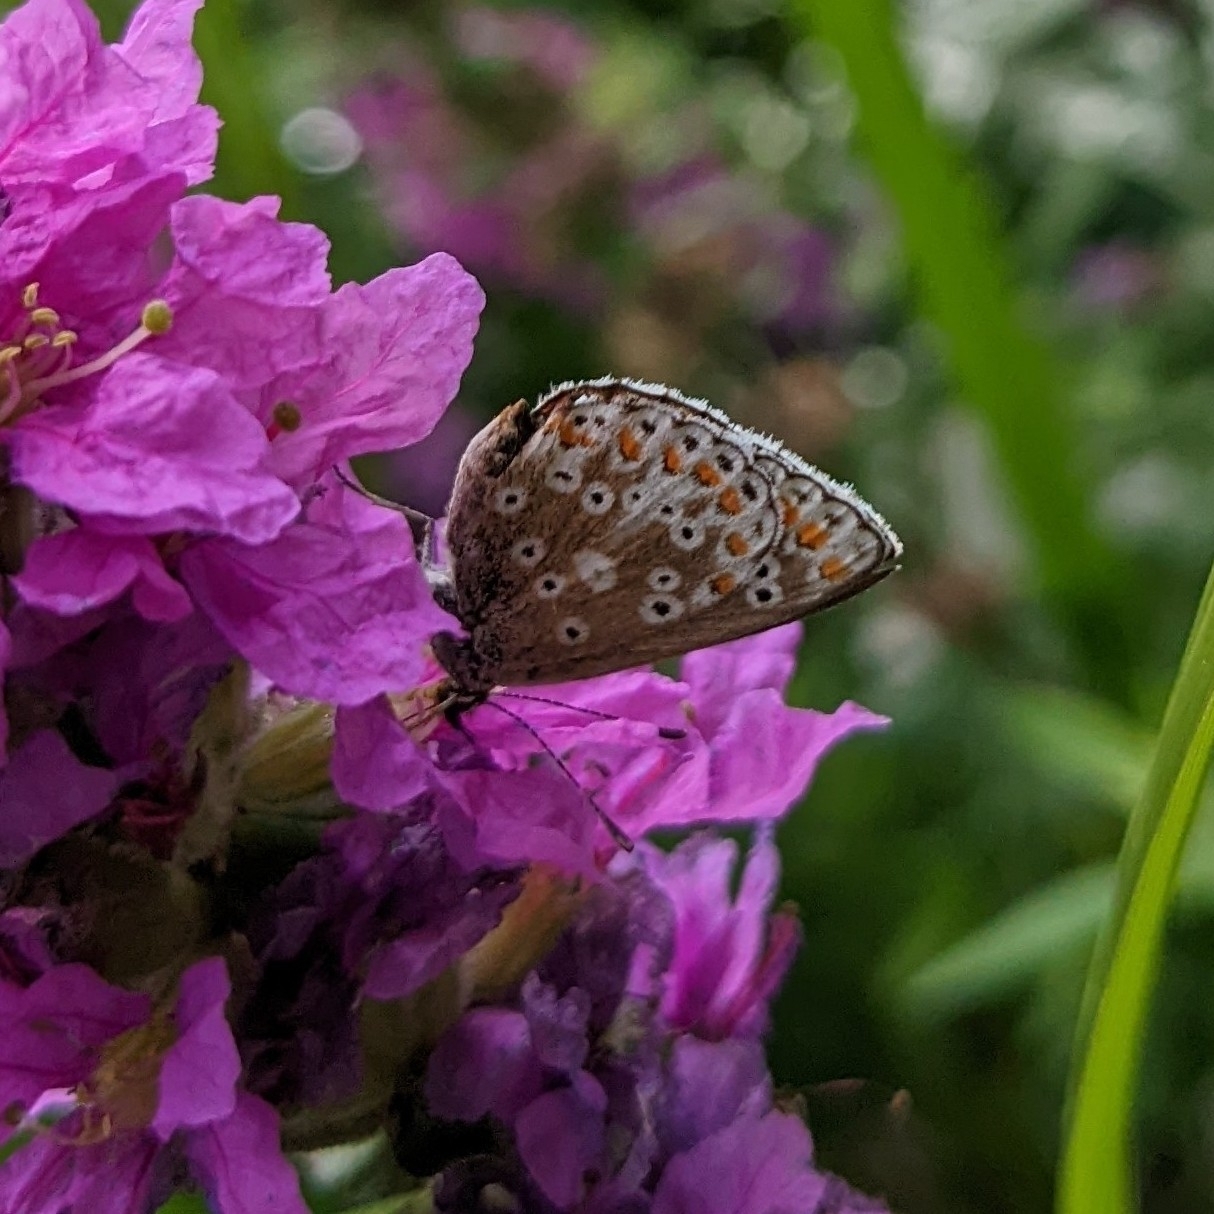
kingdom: Animalia
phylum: Arthropoda
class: Insecta
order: Lepidoptera
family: Lycaenidae
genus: Aricia
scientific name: Aricia agestis
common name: Brown argus
